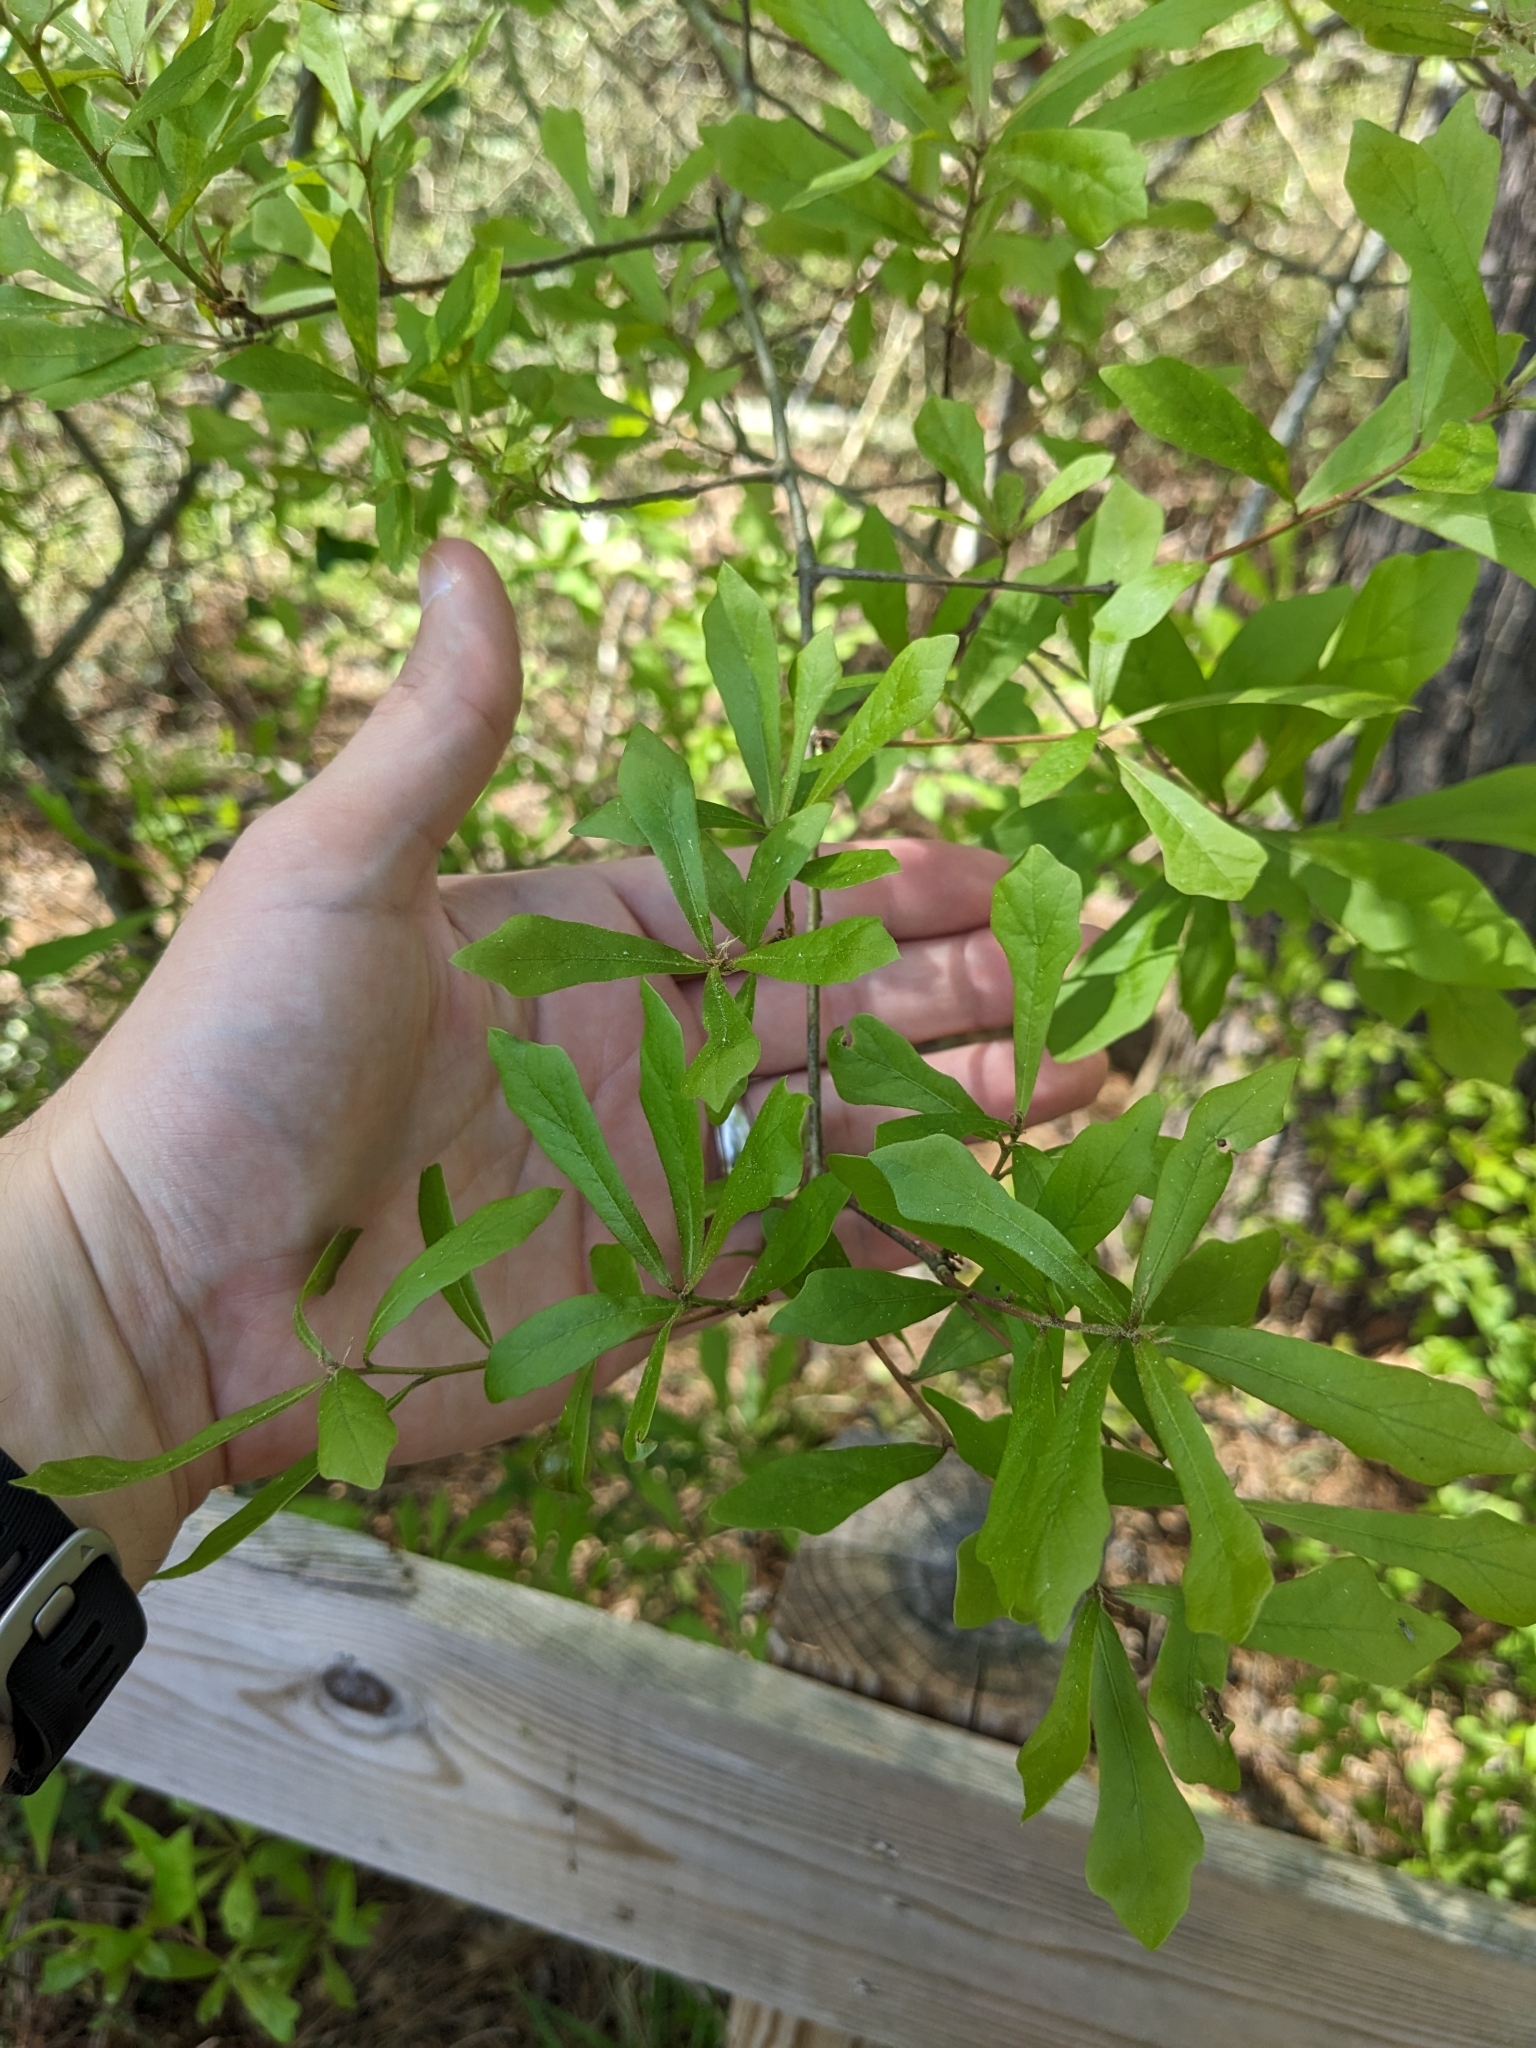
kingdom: Plantae
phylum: Tracheophyta
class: Magnoliopsida
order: Fagales
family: Fagaceae
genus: Quercus
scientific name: Quercus nigra
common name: Water oak
